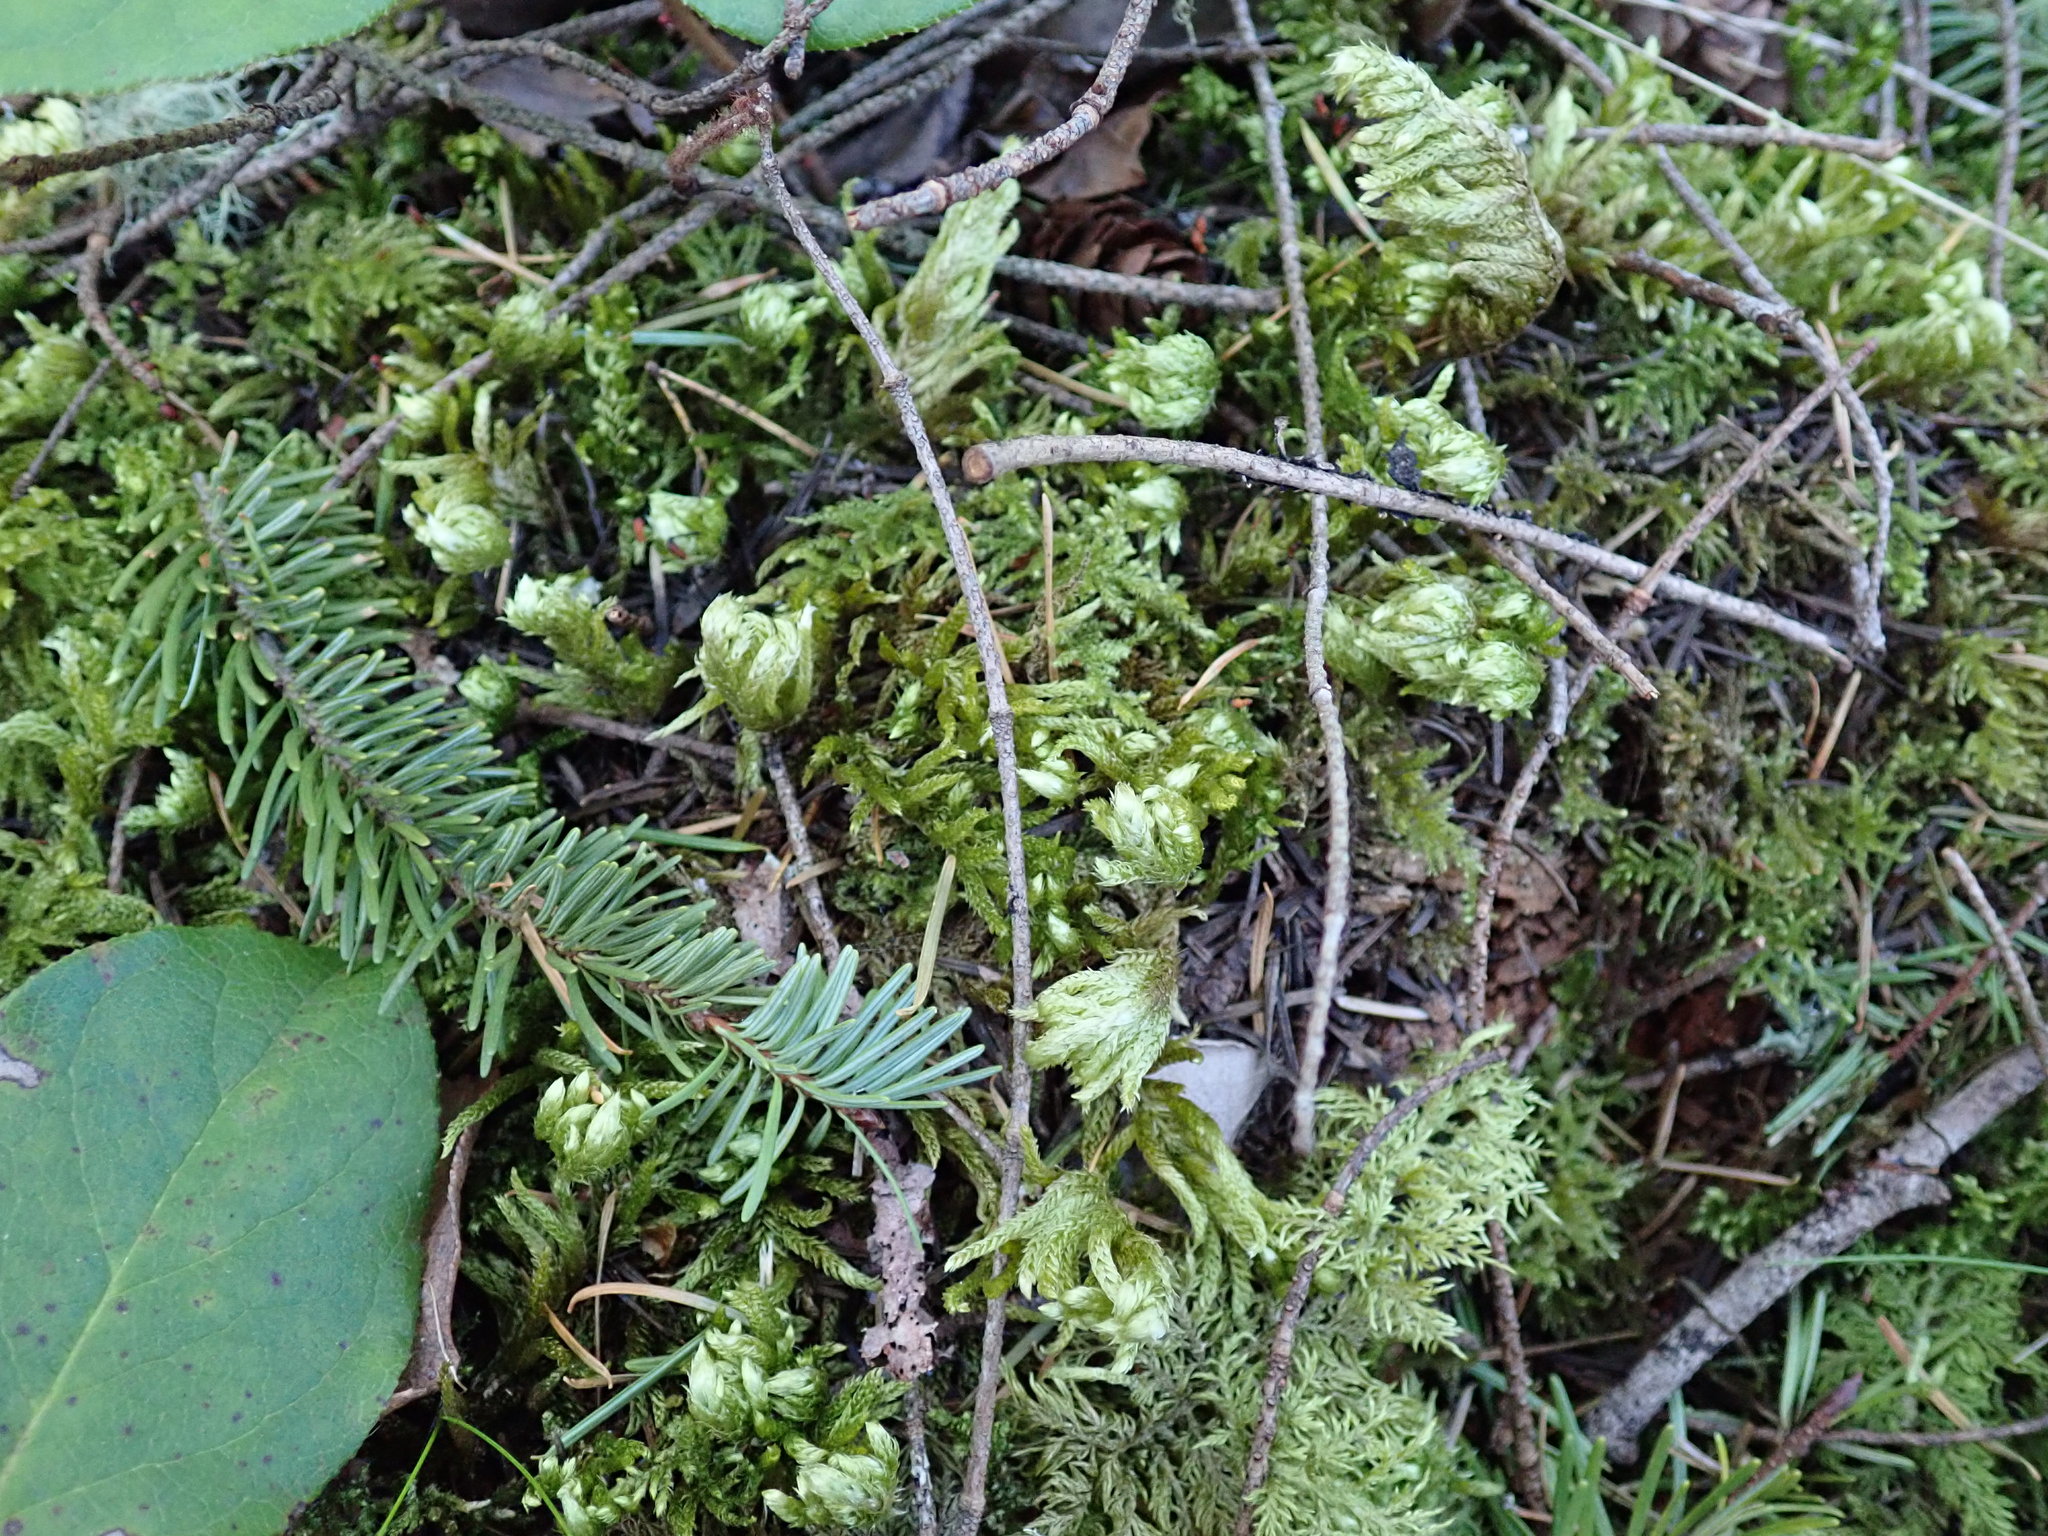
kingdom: Plantae
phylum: Bryophyta
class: Bryopsida
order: Hypnales
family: Brachytheciaceae
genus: Homalothecium
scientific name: Homalothecium megaptilum
